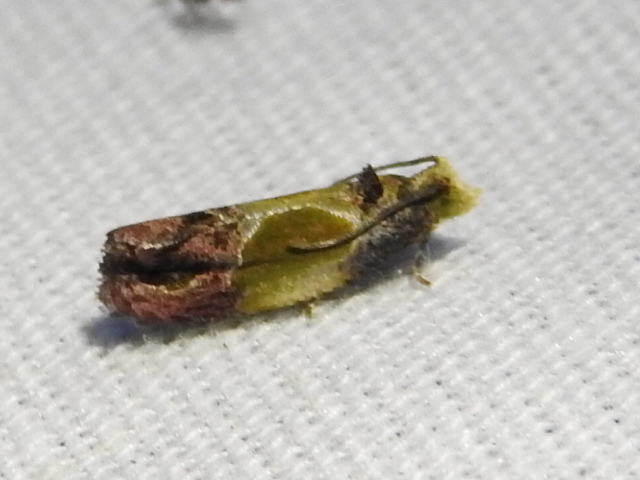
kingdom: Animalia
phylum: Arthropoda
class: Insecta
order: Lepidoptera
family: Tortricidae
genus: Eumarozia
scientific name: Eumarozia malachitana
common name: Sculptured moth
